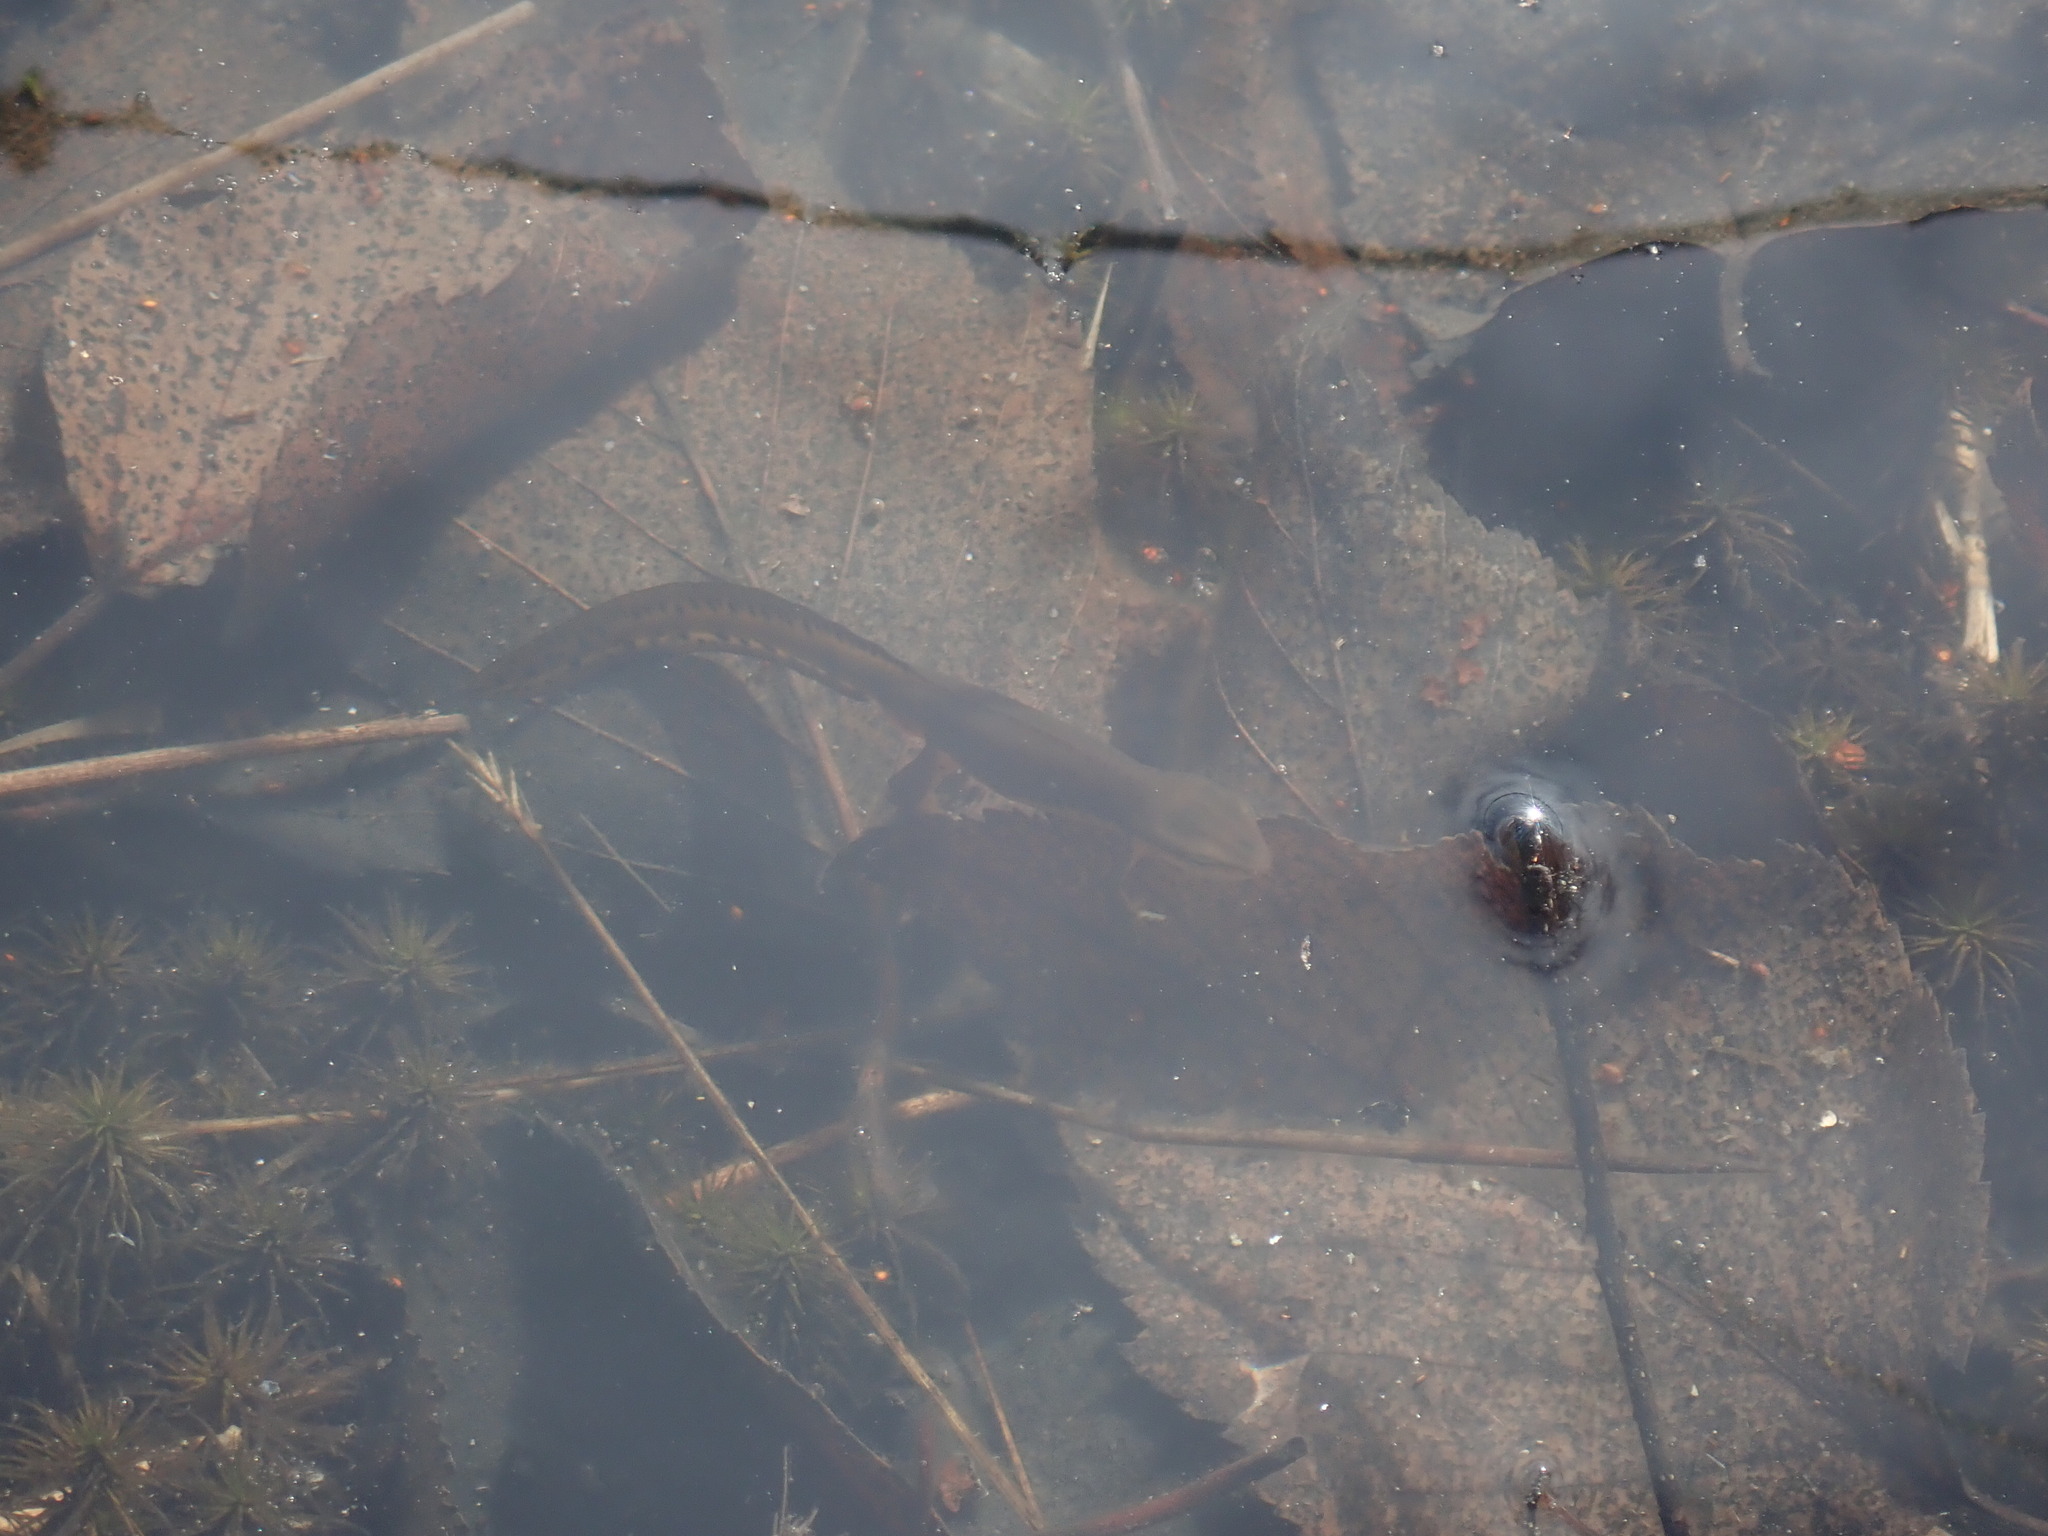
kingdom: Animalia
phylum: Chordata
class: Amphibia
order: Caudata
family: Salamandridae
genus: Notophthalmus
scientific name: Notophthalmus viridescens
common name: Eastern newt
